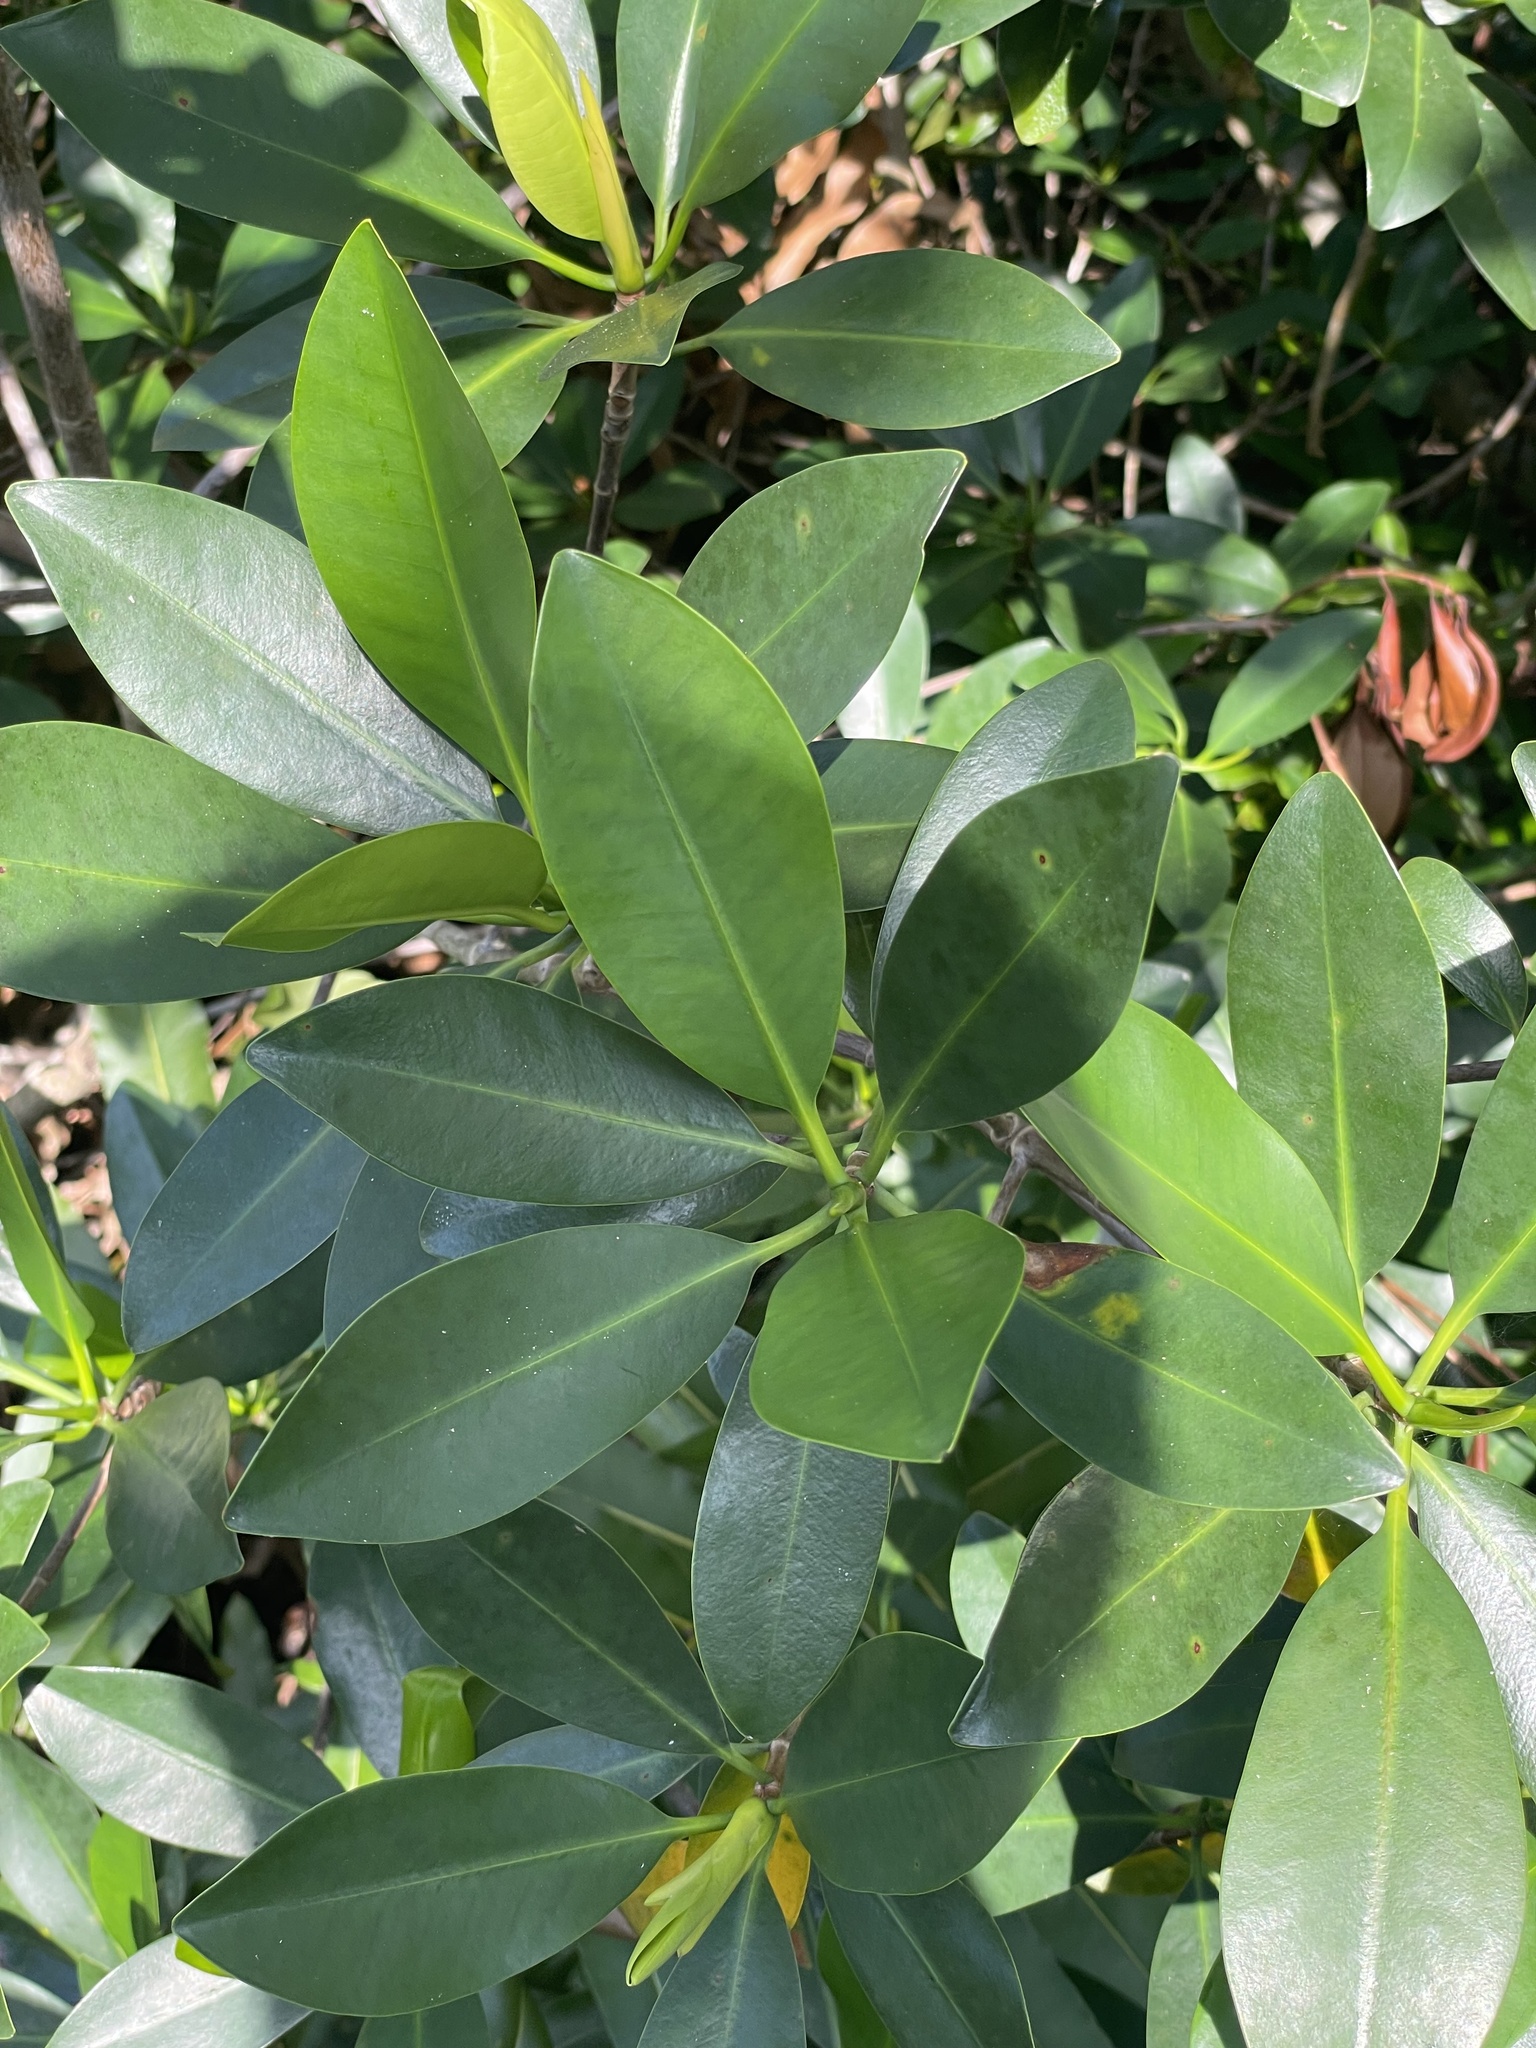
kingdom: Plantae
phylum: Tracheophyta
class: Magnoliopsida
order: Malpighiales
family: Rhizophoraceae
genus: Rhizophora
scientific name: Rhizophora mangle
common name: Red mangrove
